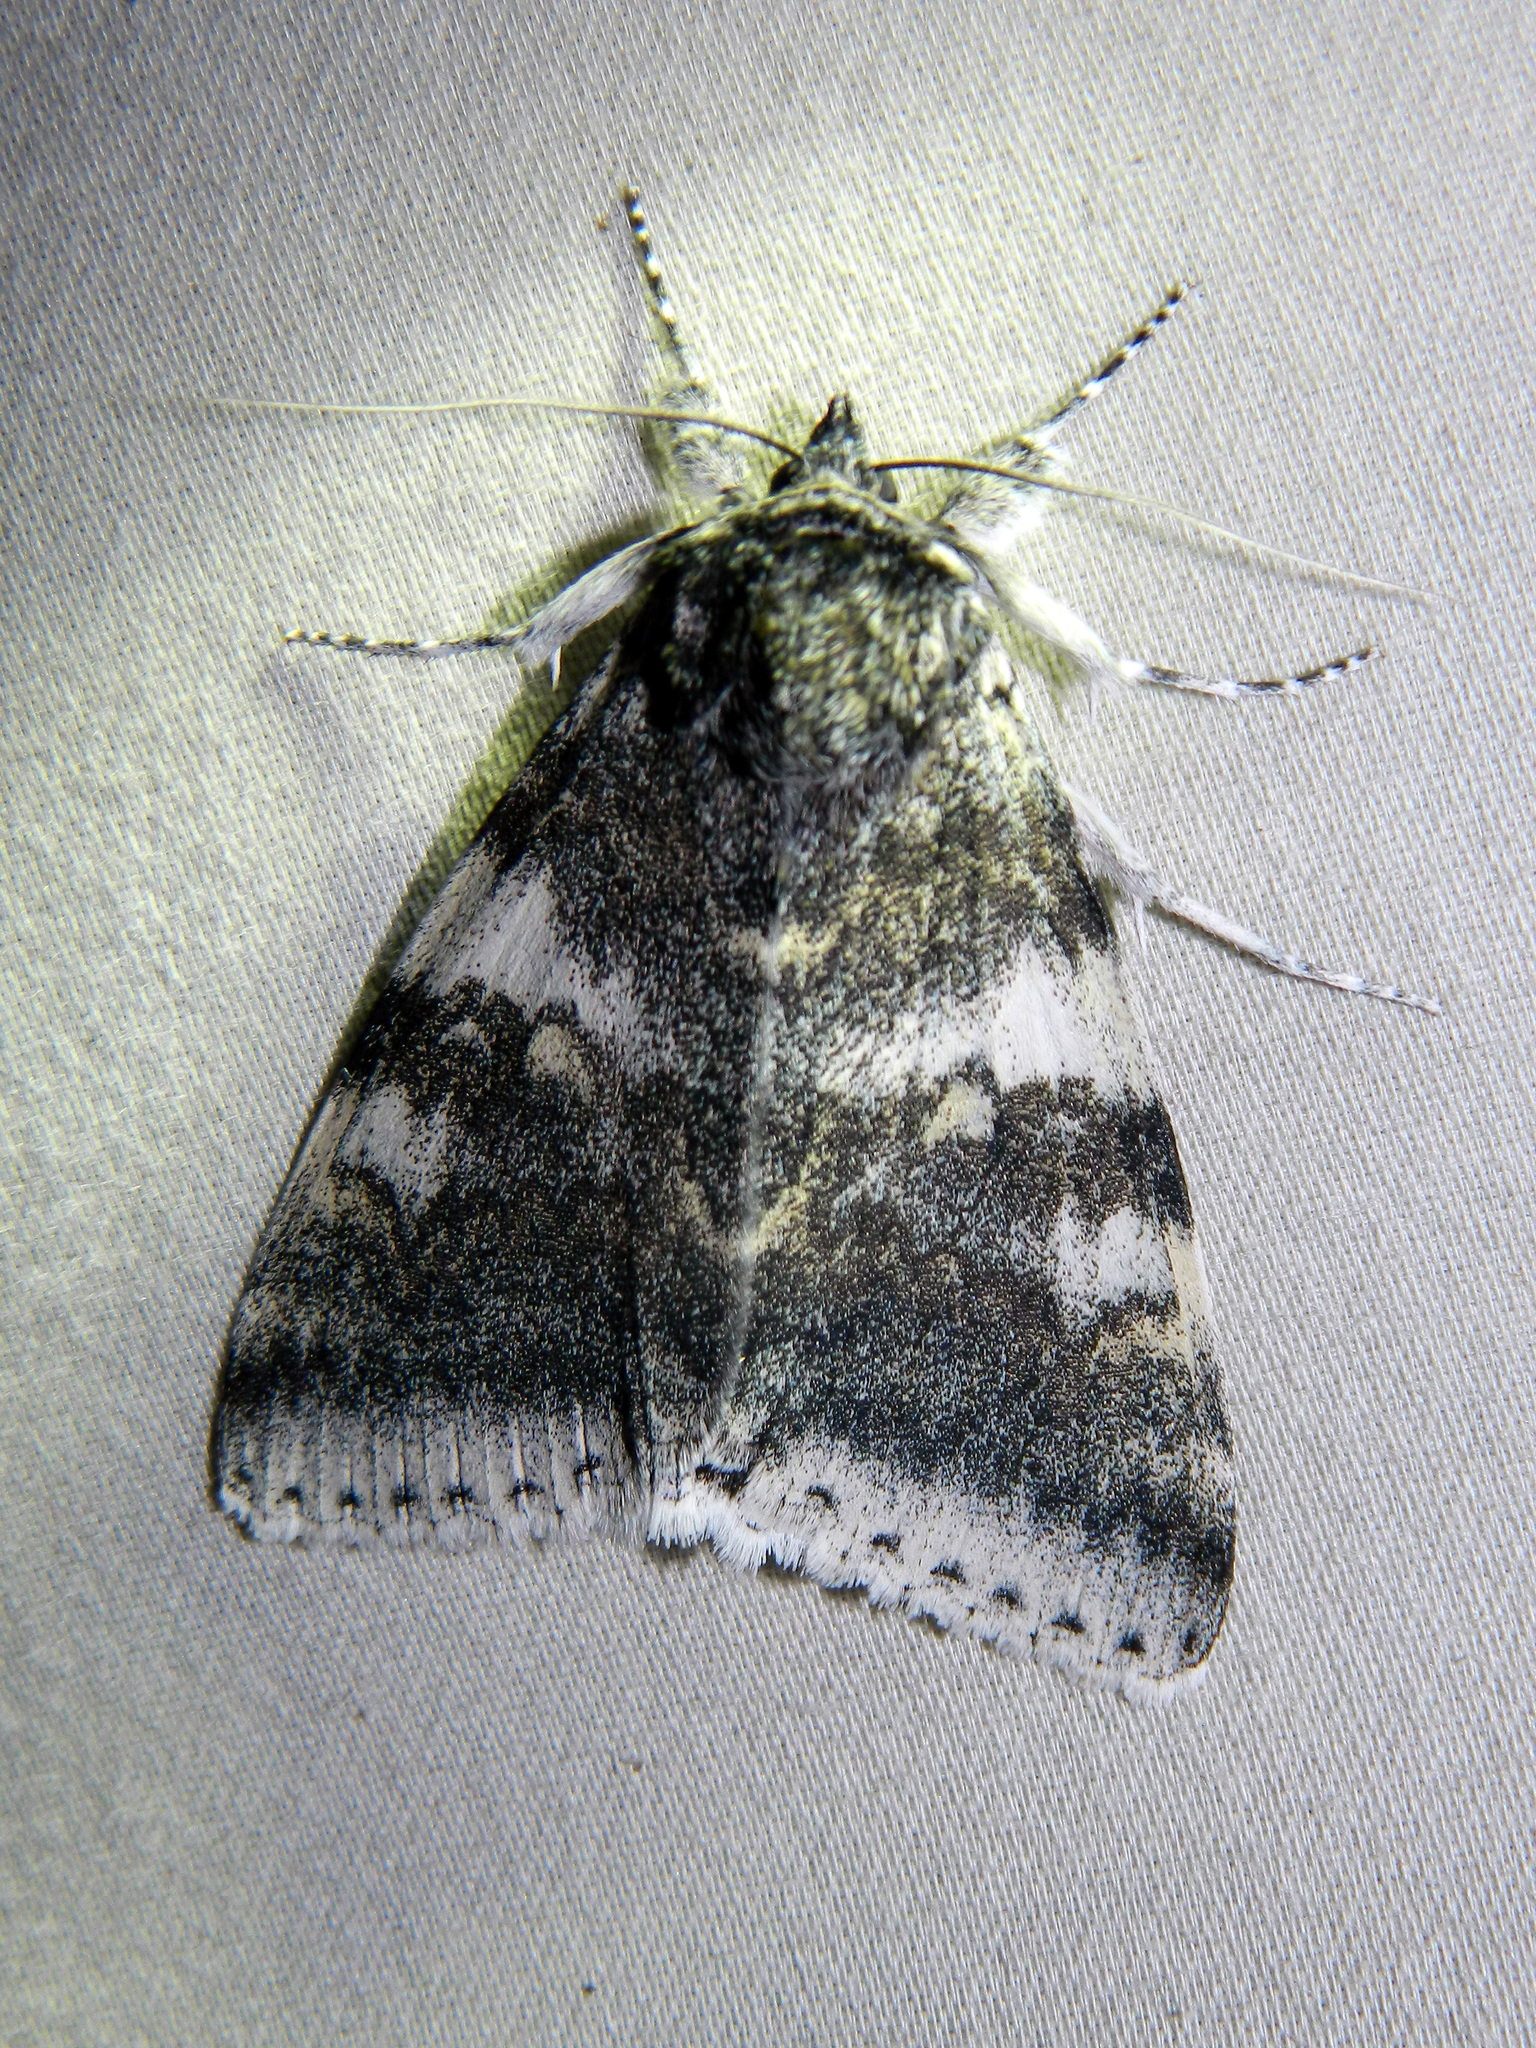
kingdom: Animalia
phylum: Arthropoda
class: Insecta
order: Lepidoptera
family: Erebidae
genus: Catocala
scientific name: Catocala relicta
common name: White underwing
